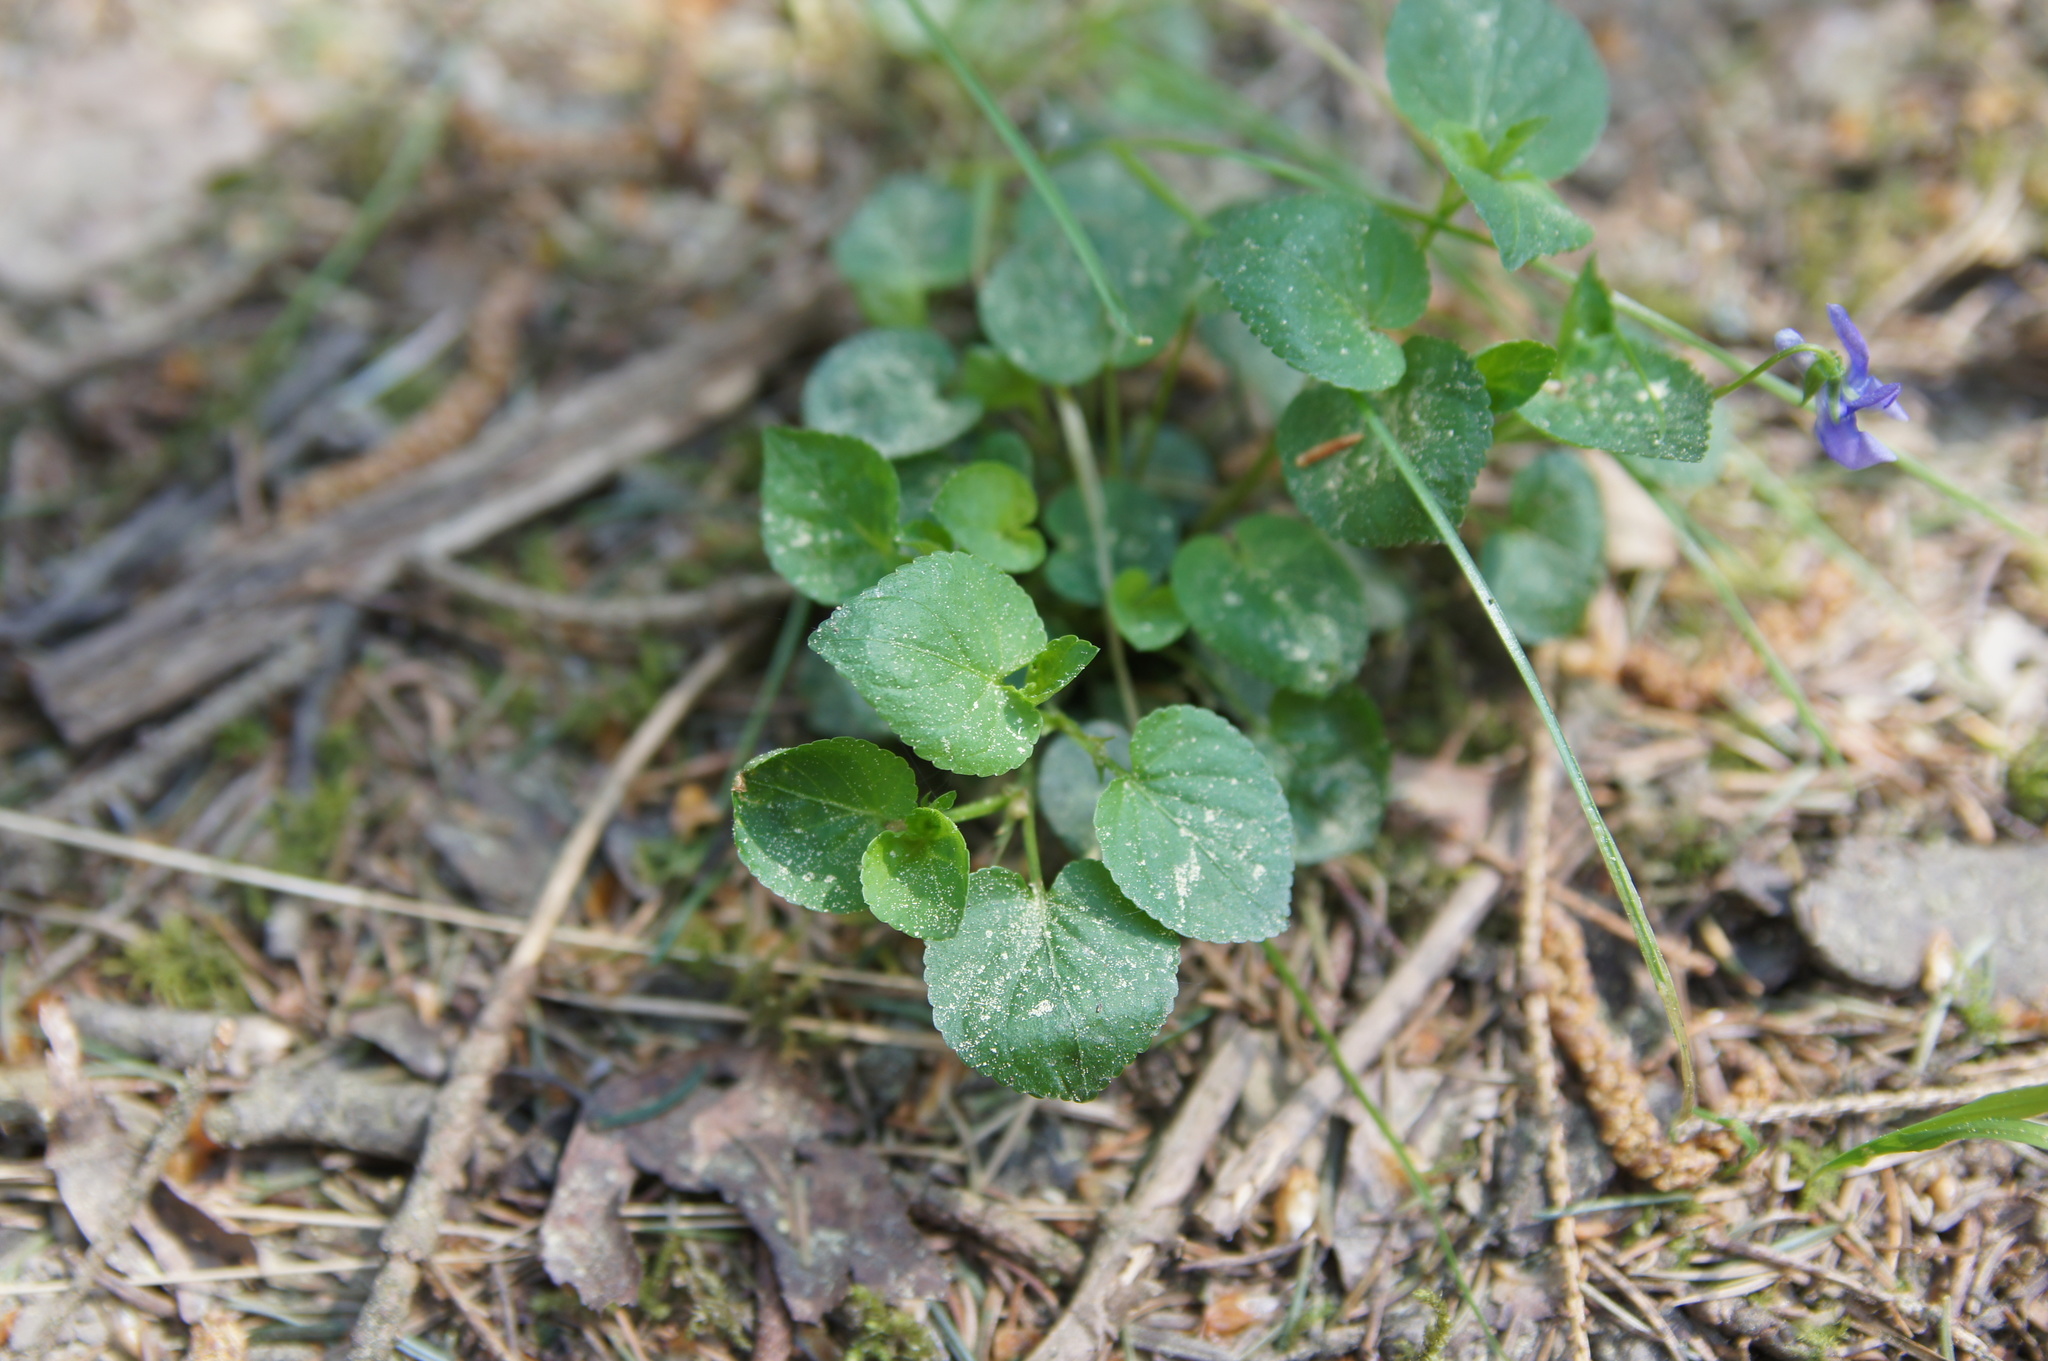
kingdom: Plantae
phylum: Tracheophyta
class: Magnoliopsida
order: Malpighiales
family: Violaceae
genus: Viola
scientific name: Viola reichenbachiana
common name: Early dog-violet
